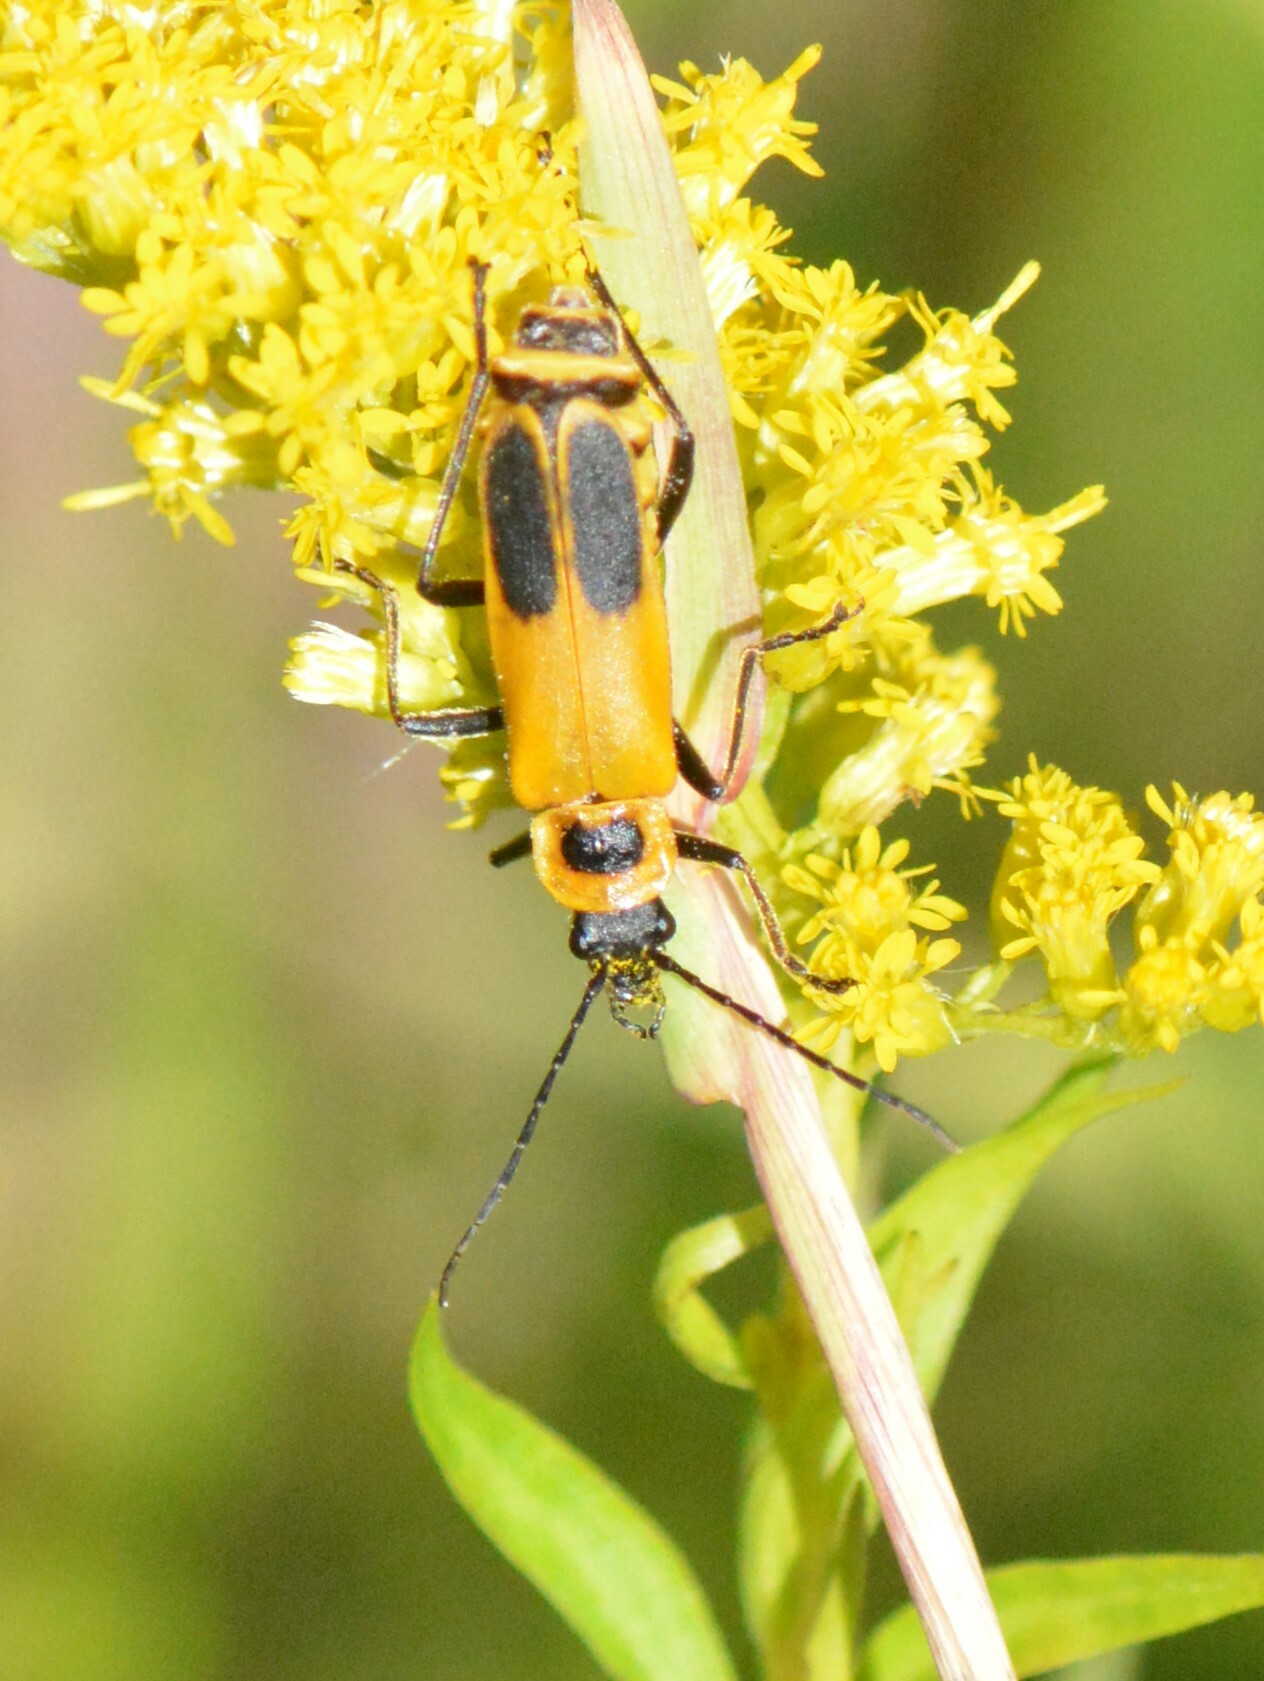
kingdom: Animalia
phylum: Arthropoda
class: Insecta
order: Coleoptera
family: Cantharidae
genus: Chauliognathus
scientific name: Chauliognathus pensylvanicus
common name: Goldenrod soldier beetle
